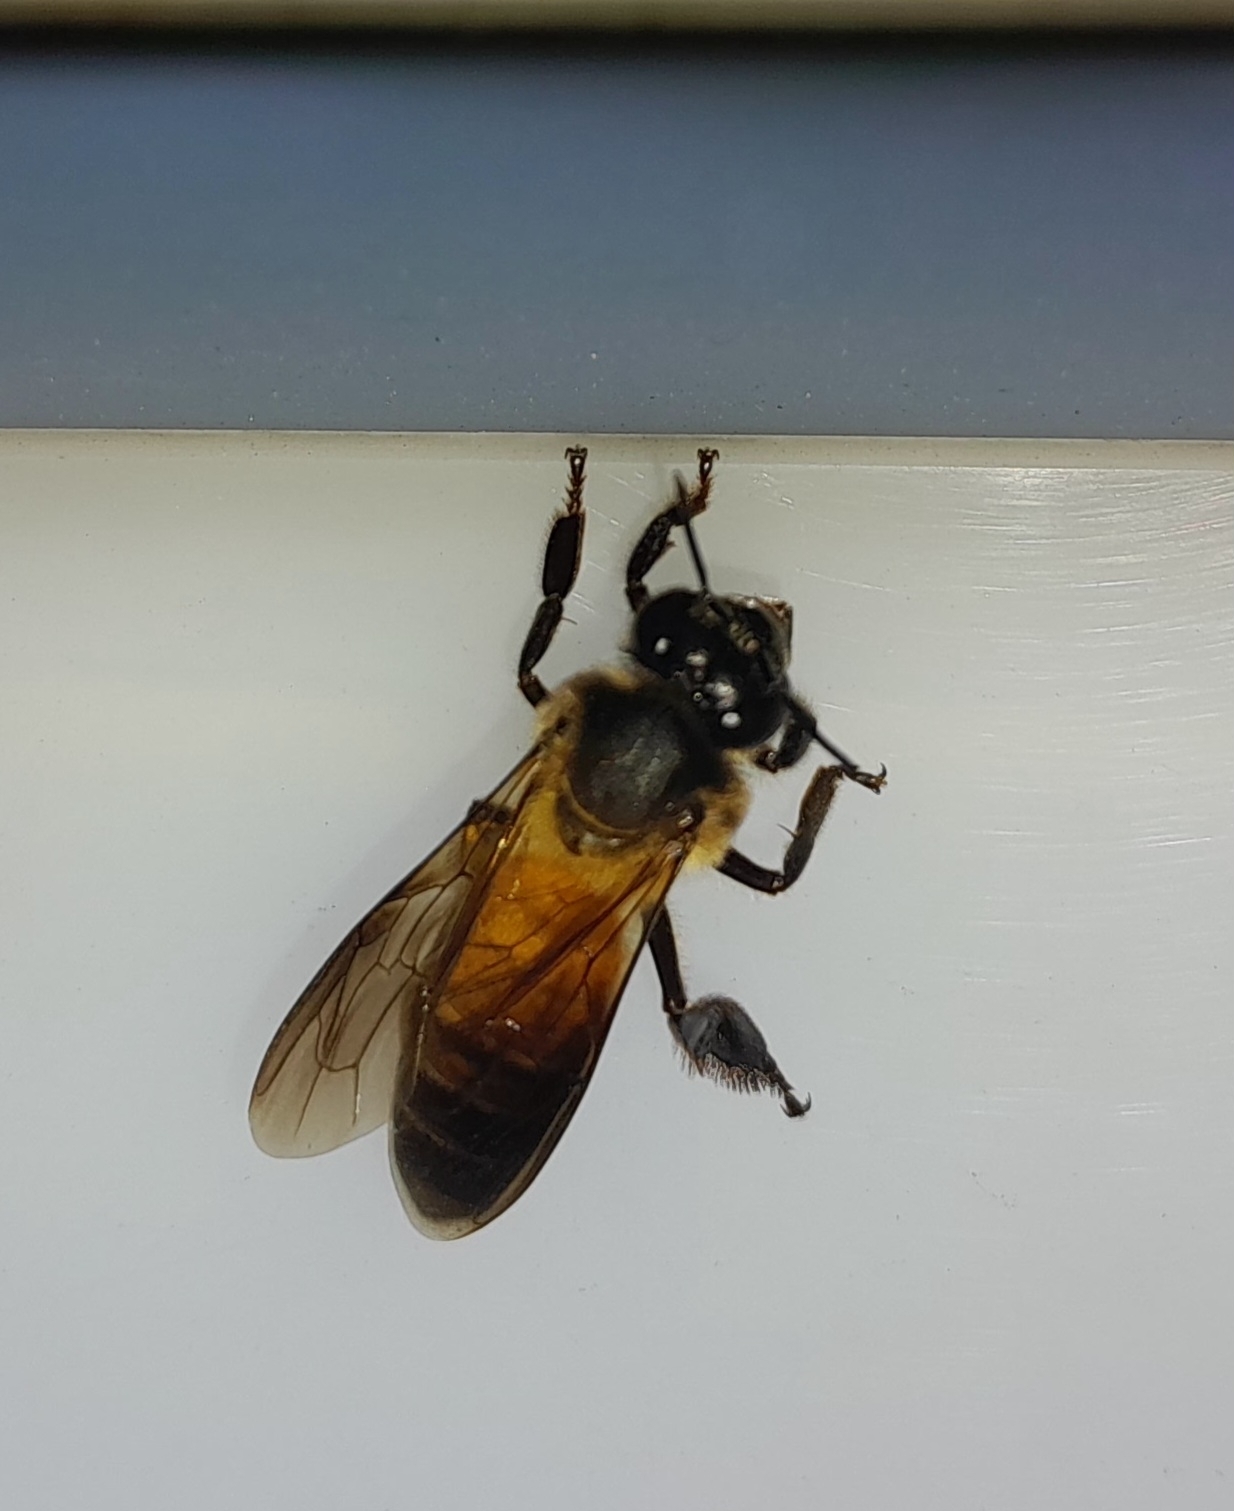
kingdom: Animalia
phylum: Arthropoda
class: Insecta
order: Hymenoptera
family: Apidae
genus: Apis
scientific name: Apis dorsata
